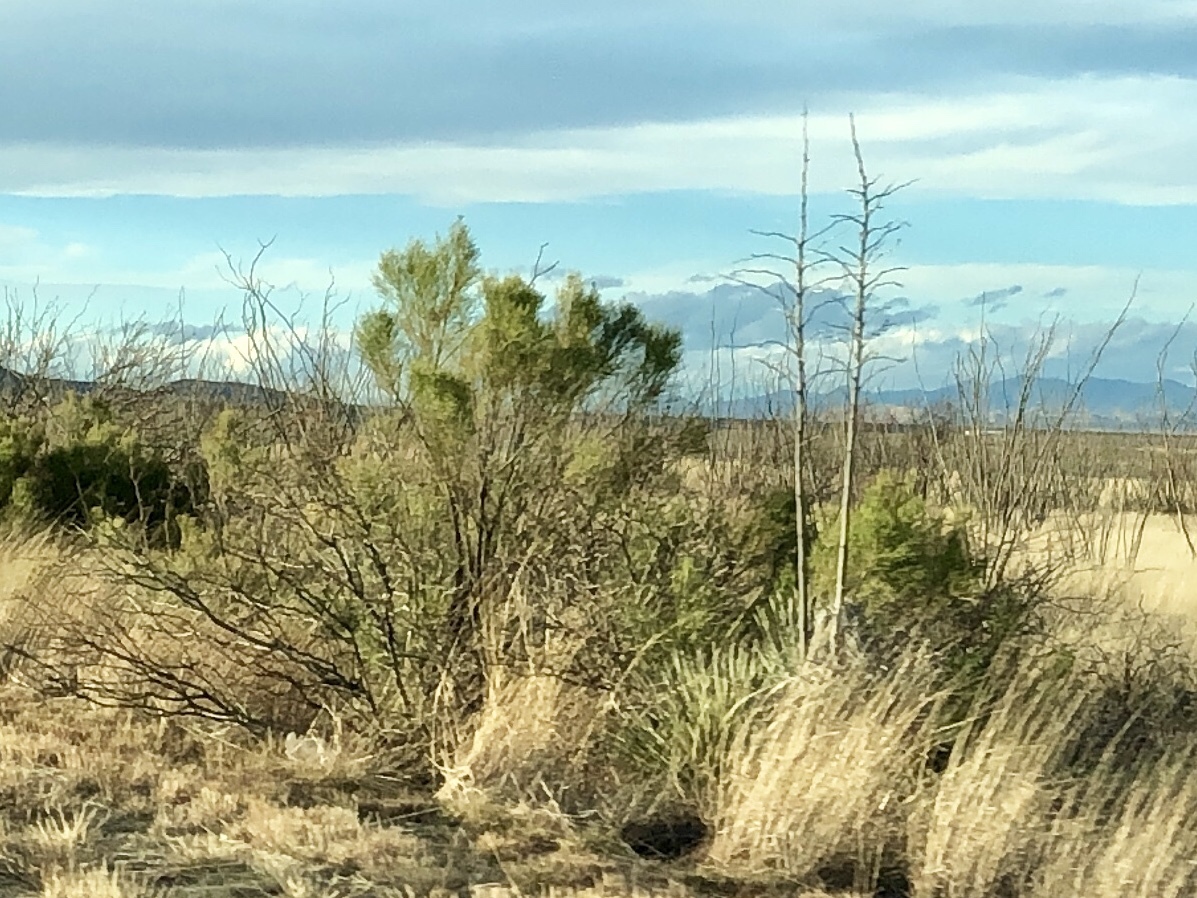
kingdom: Plantae
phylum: Tracheophyta
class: Magnoliopsida
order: Asterales
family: Asteraceae
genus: Baccharis
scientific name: Baccharis sarothroides
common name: Desert-broom
